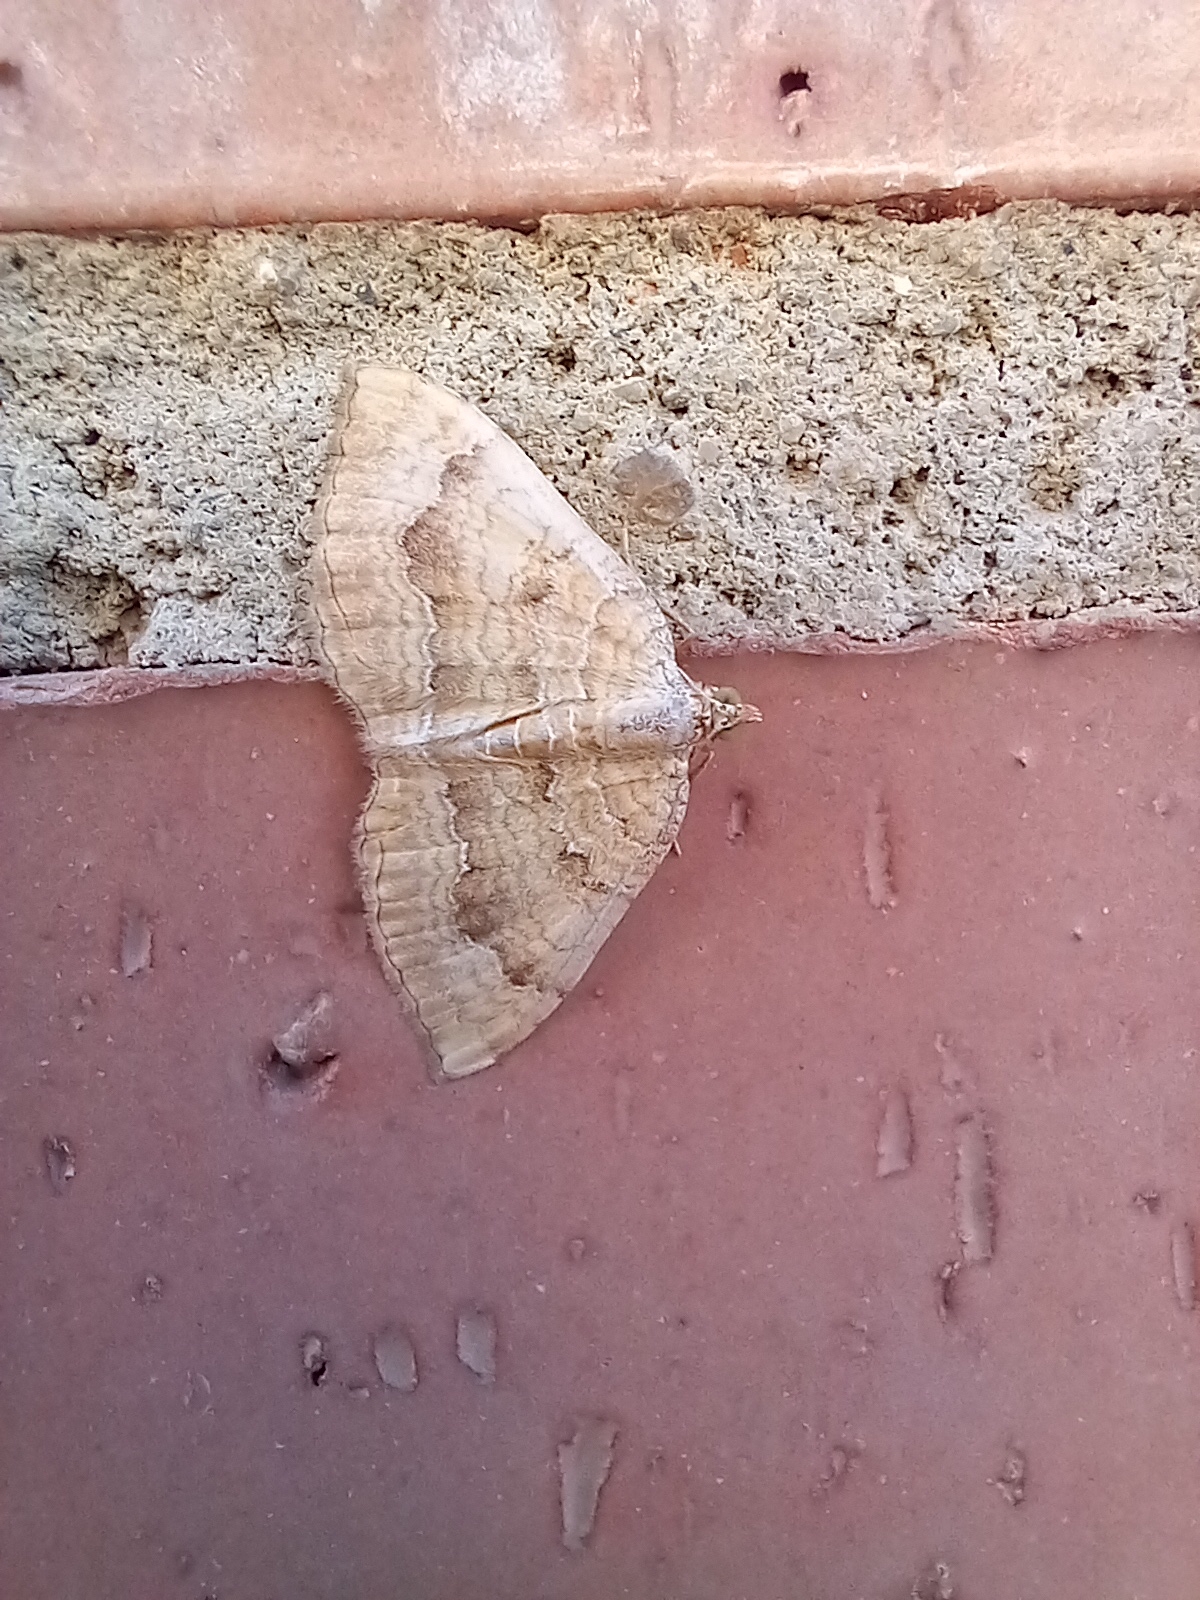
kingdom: Animalia
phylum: Arthropoda
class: Insecta
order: Lepidoptera
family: Geometridae
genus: Camptogramma
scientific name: Camptogramma bilineata
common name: Yellow shell
